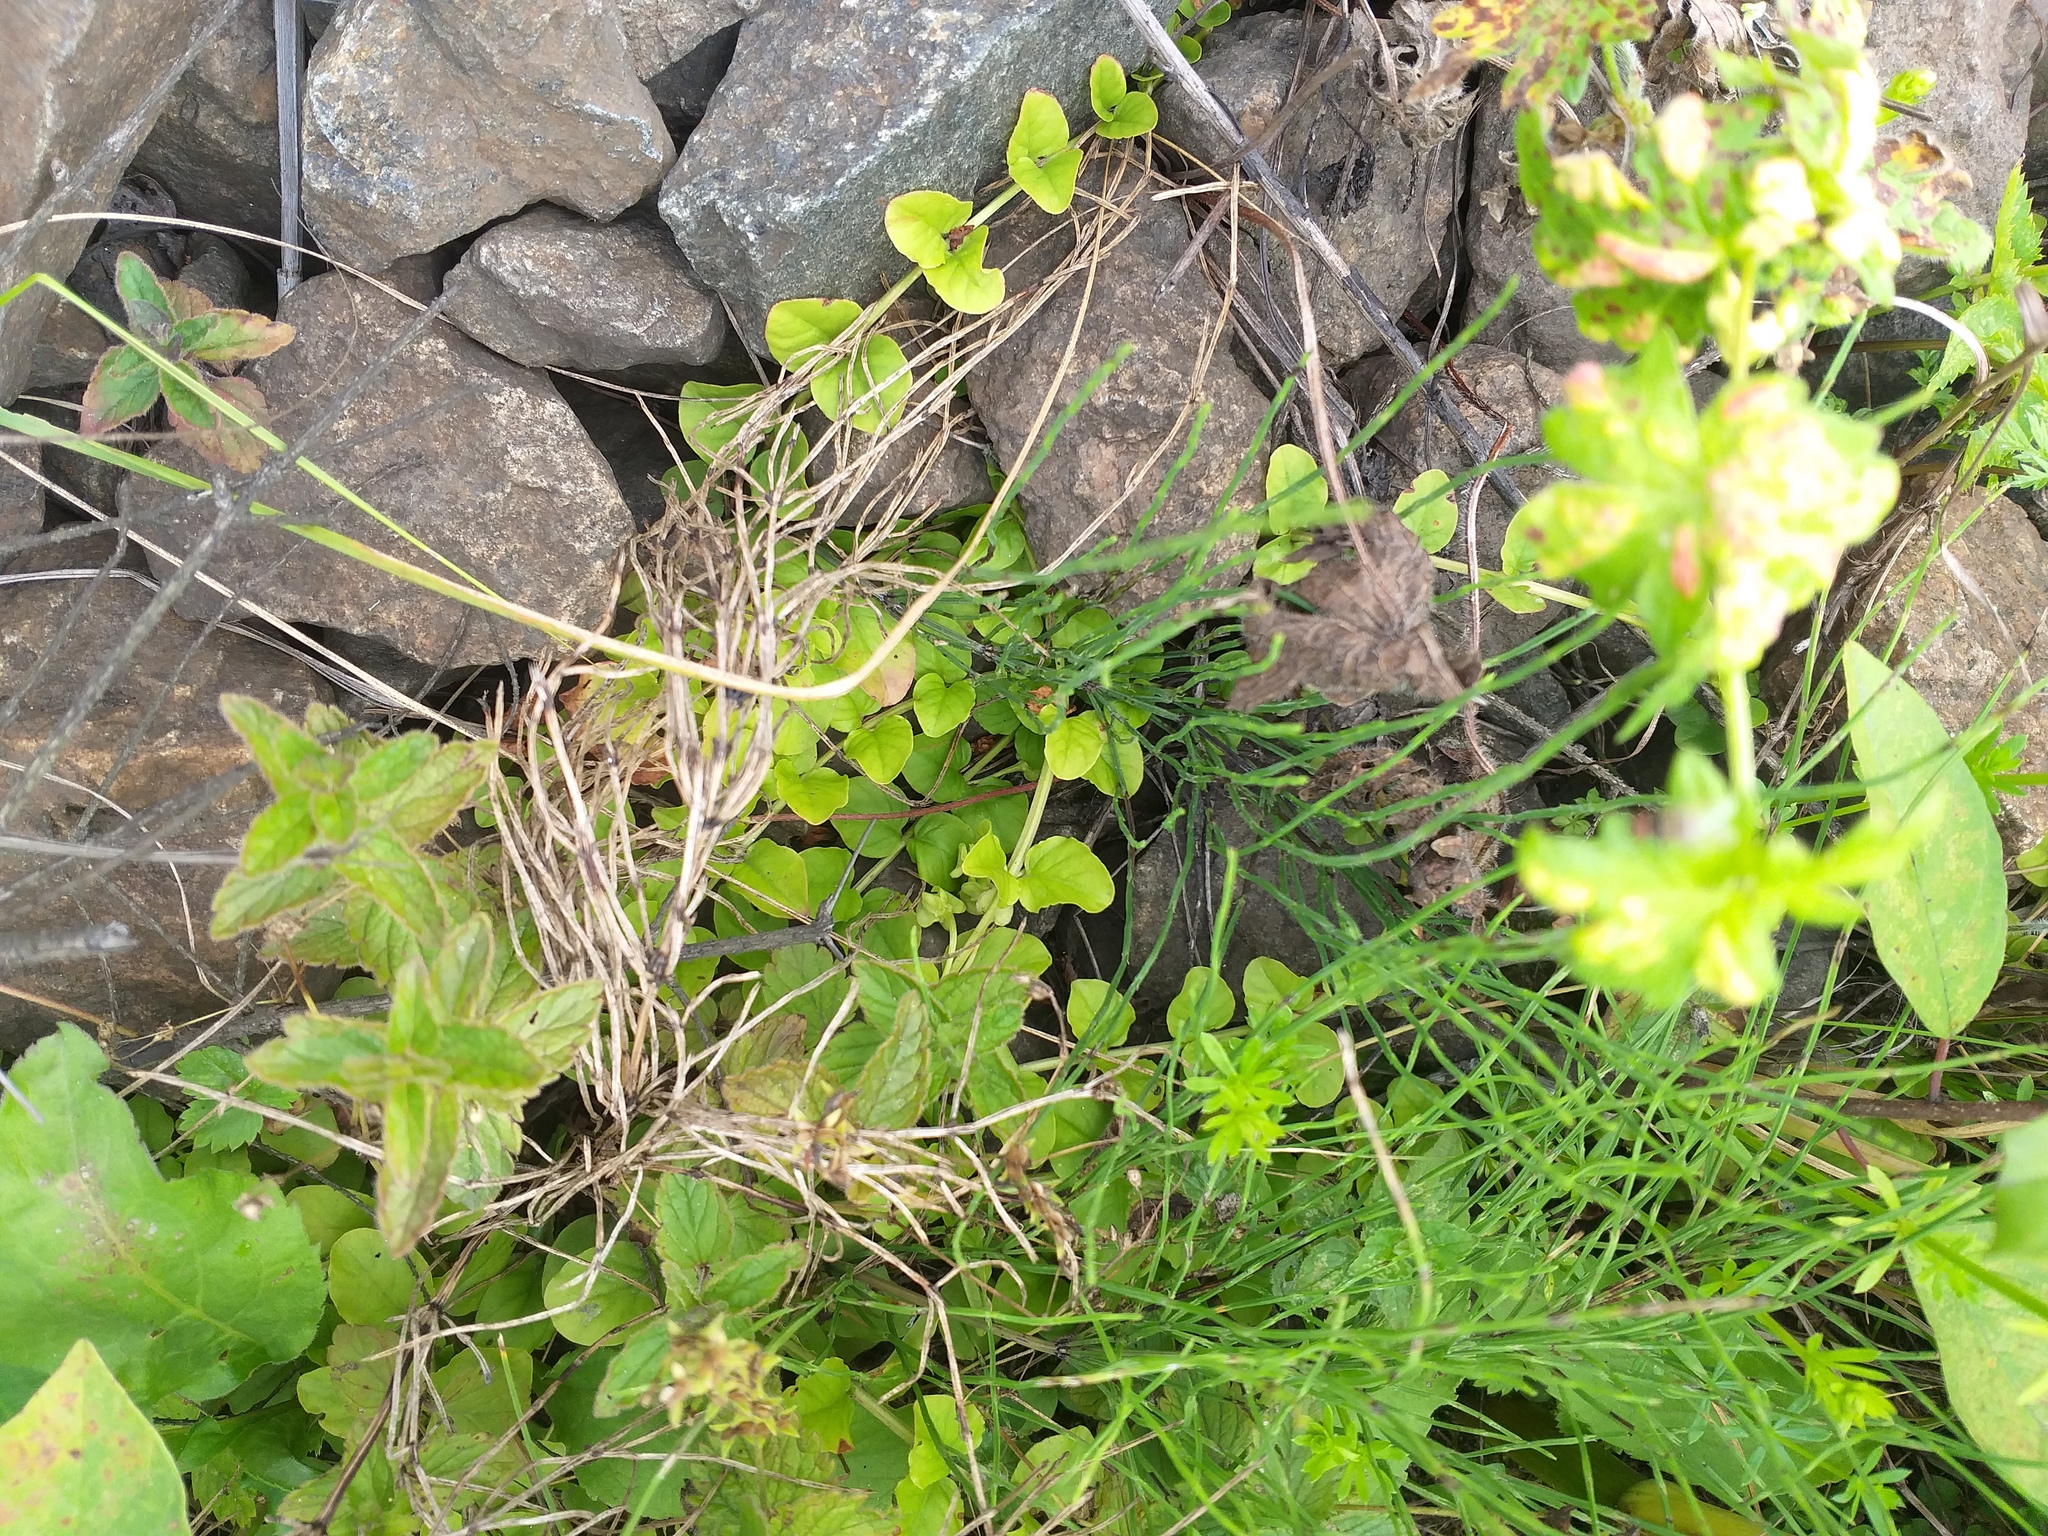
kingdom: Plantae
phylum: Tracheophyta
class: Magnoliopsida
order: Ericales
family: Primulaceae
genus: Lysimachia
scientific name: Lysimachia nummularia
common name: Moneywort
